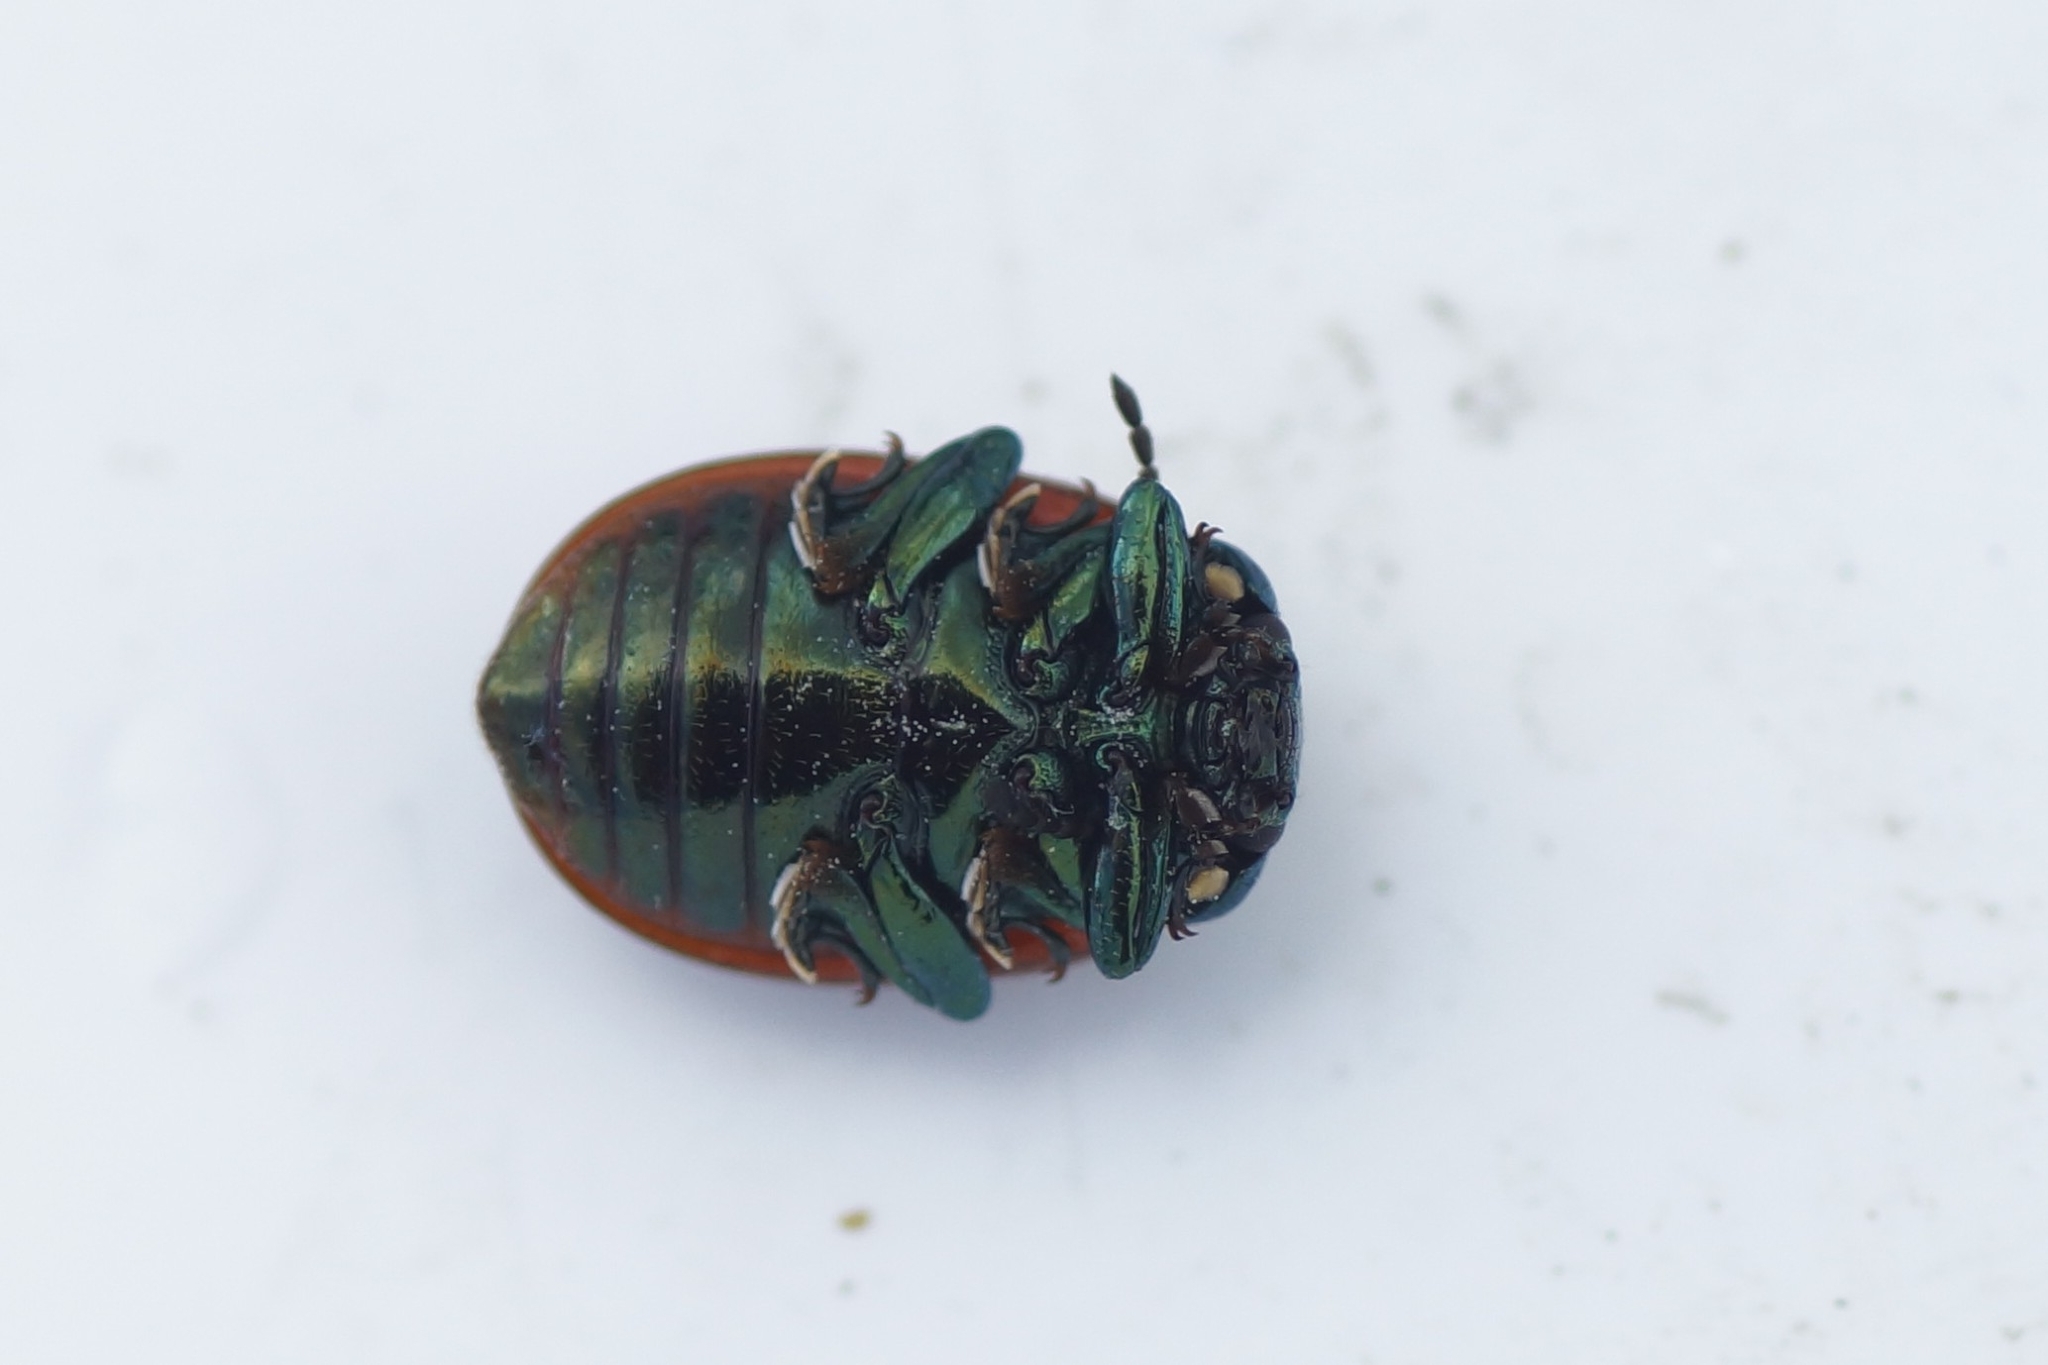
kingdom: Animalia
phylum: Arthropoda
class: Insecta
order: Coleoptera
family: Chrysomelidae
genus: Chrysomela
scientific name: Chrysomela polita
